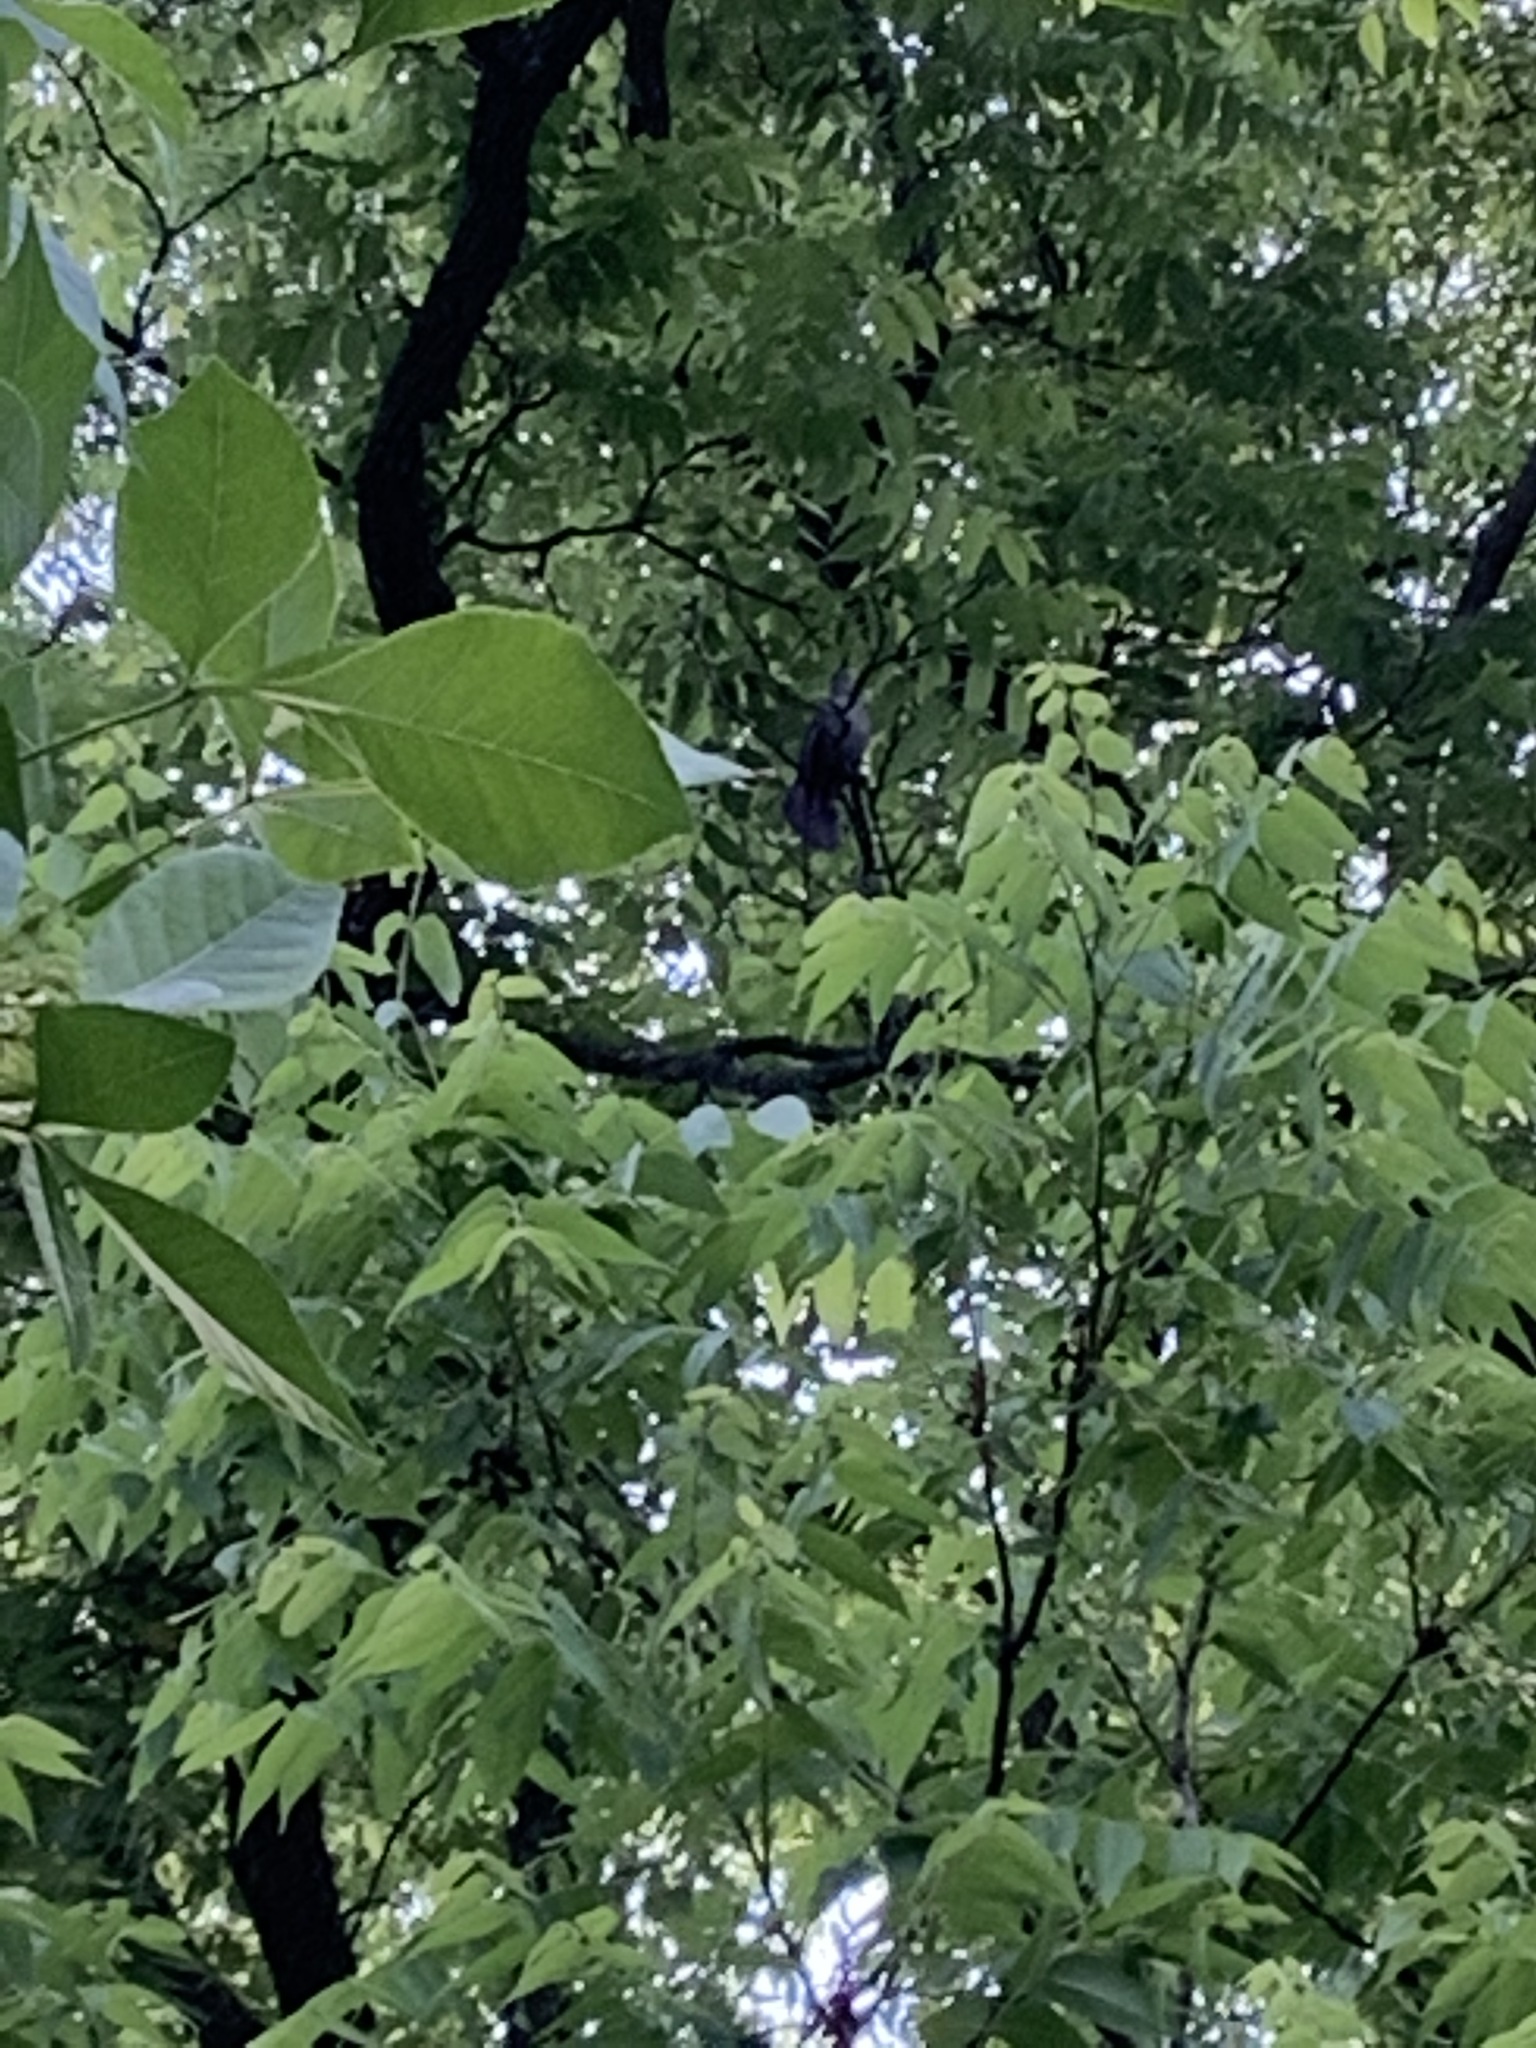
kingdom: Animalia
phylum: Chordata
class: Aves
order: Passeriformes
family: Mimidae
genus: Dumetella
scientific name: Dumetella carolinensis
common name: Gray catbird
